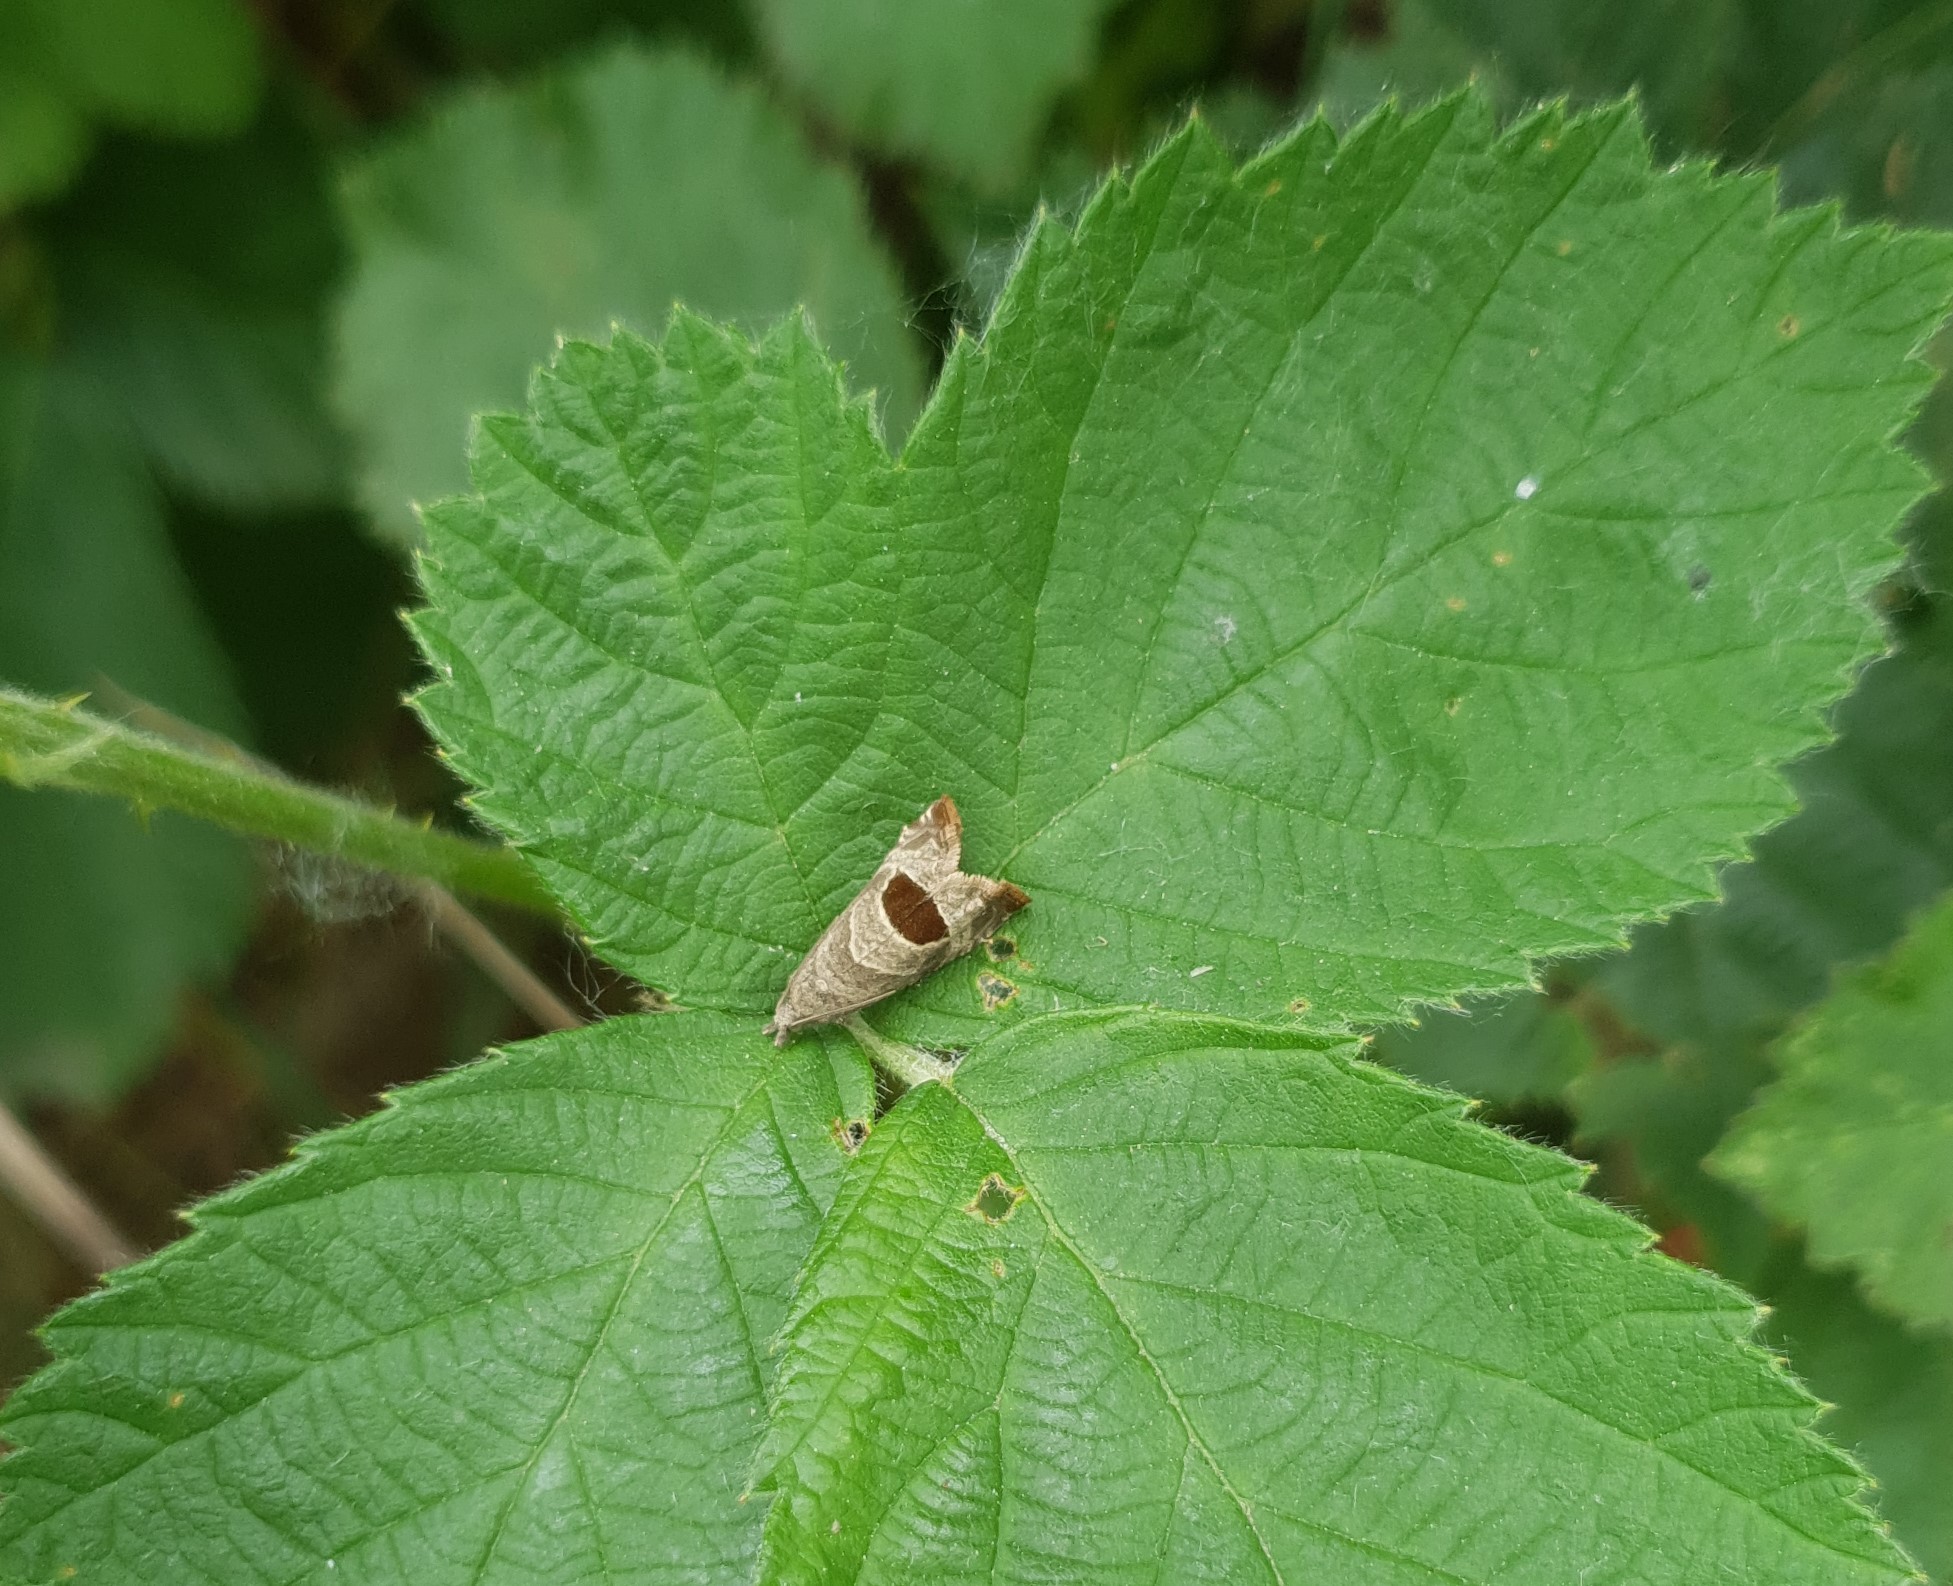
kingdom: Animalia
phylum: Arthropoda
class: Insecta
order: Lepidoptera
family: Tortricidae
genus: Notocelia
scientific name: Notocelia uddmanniana
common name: Bramble shoot moth
